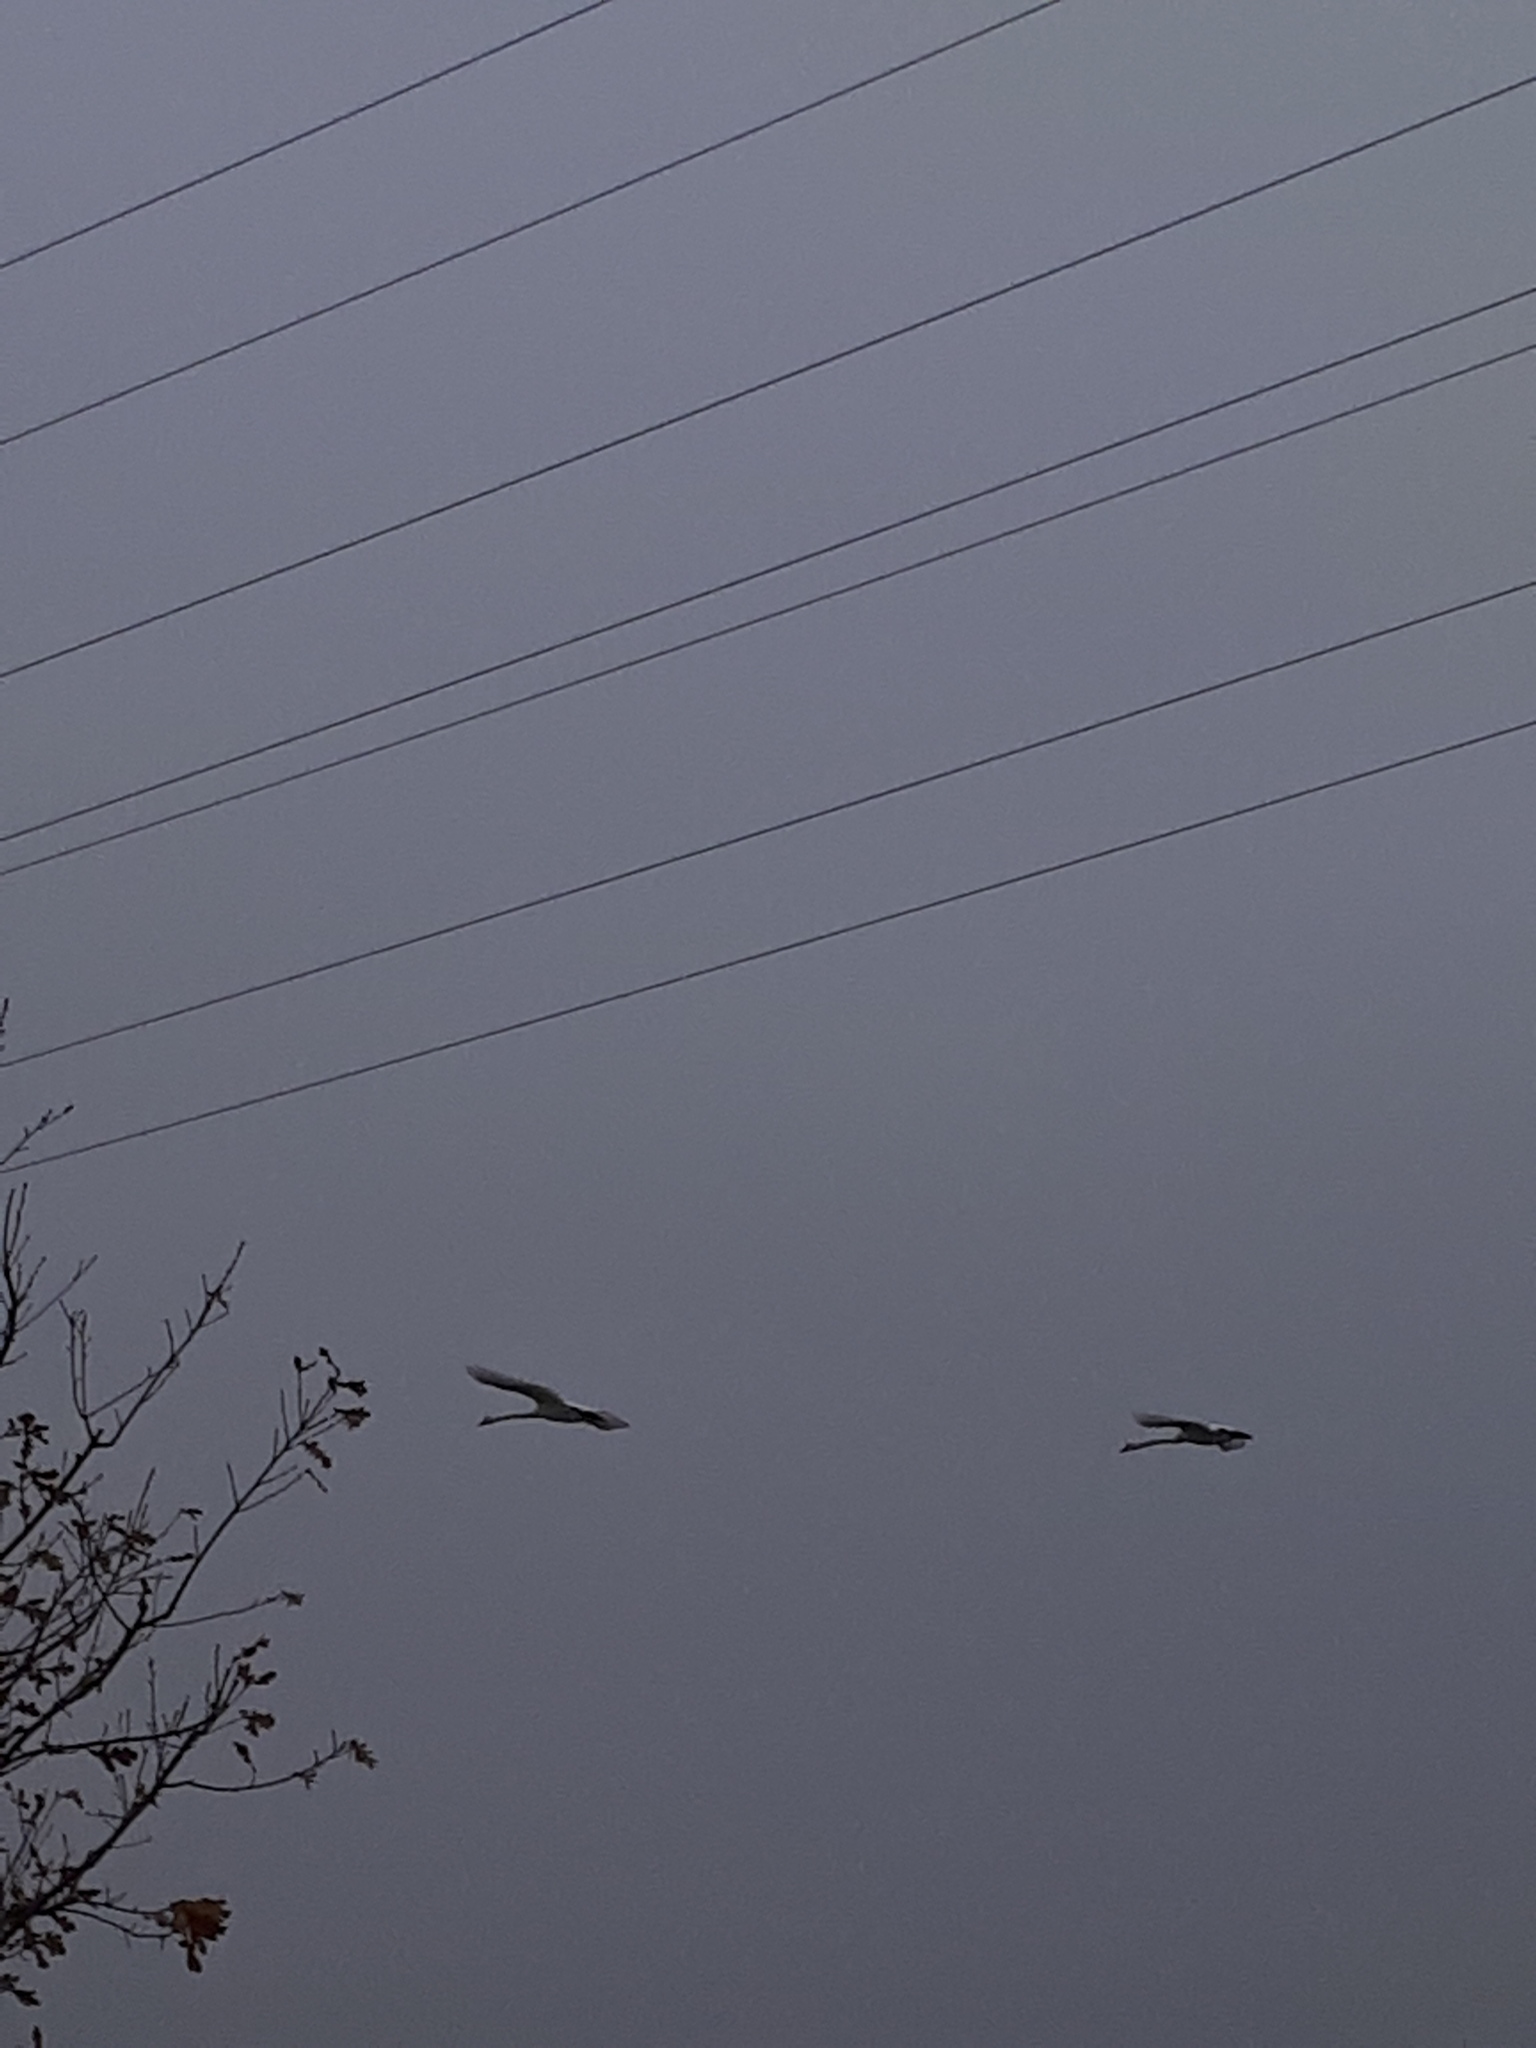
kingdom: Animalia
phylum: Chordata
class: Aves
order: Anseriformes
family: Anatidae
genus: Cygnus
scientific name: Cygnus olor
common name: Mute swan
